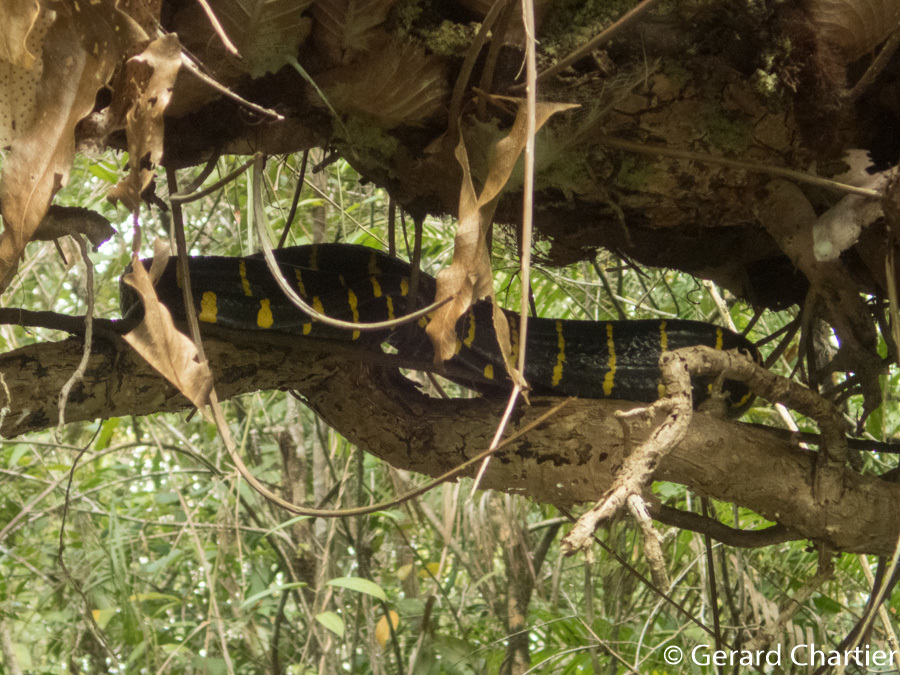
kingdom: Animalia
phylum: Chordata
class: Squamata
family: Colubridae
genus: Boiga
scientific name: Boiga melanota
